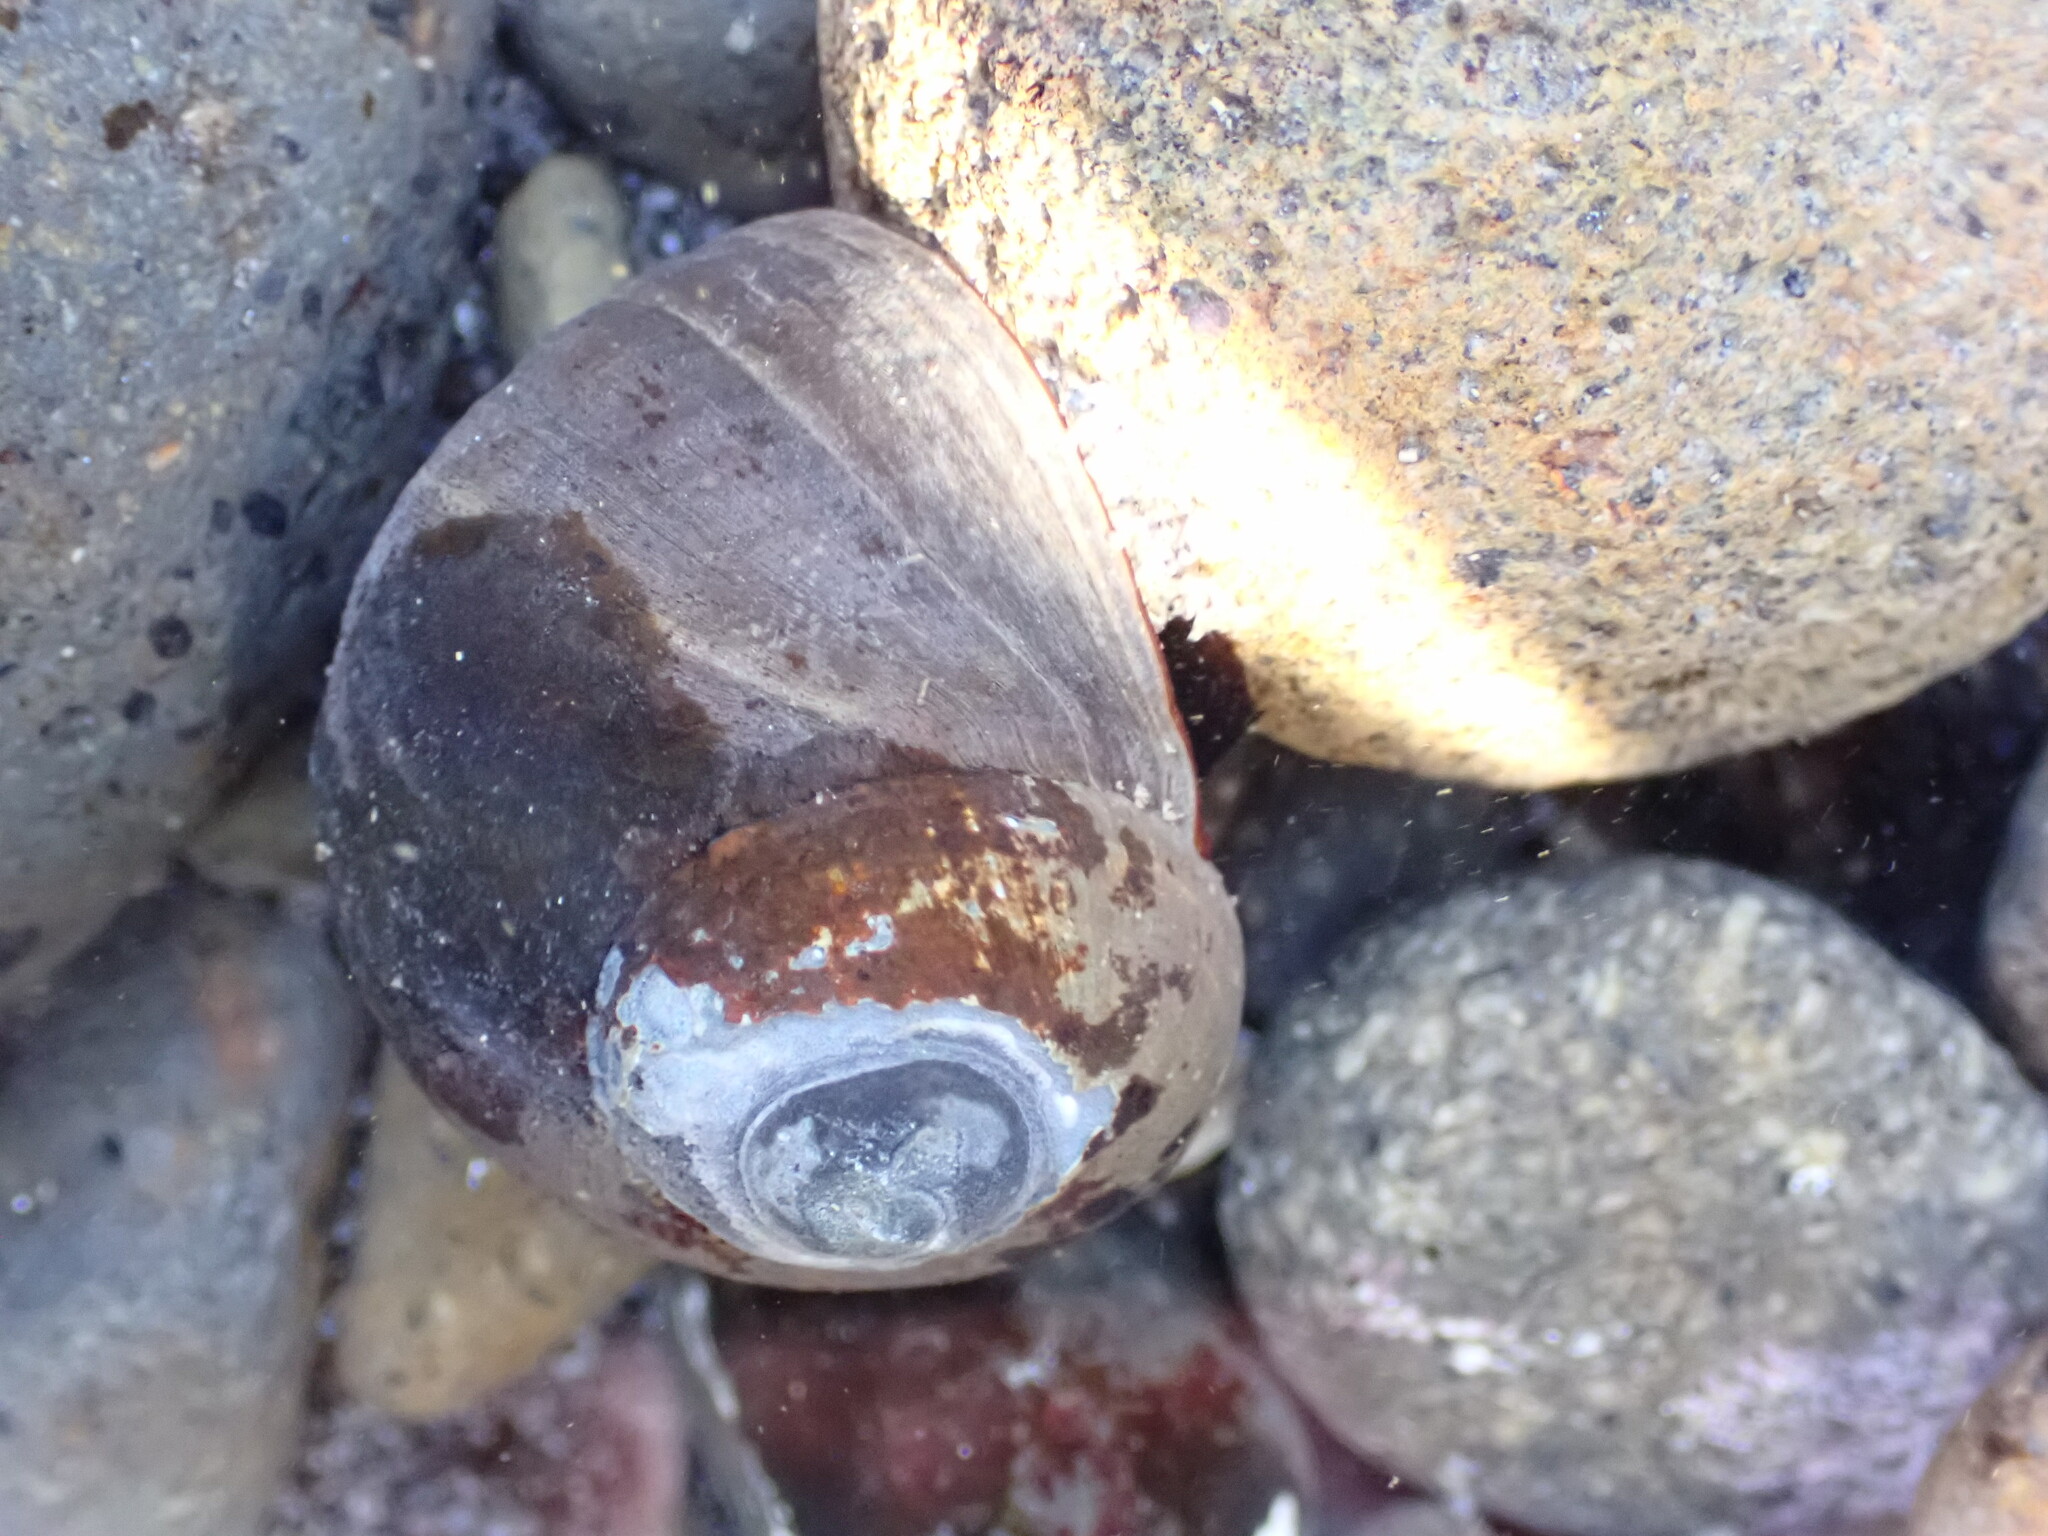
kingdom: Animalia
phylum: Mollusca
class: Gastropoda
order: Trochida
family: Turbinidae
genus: Lunella
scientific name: Lunella smaragda
